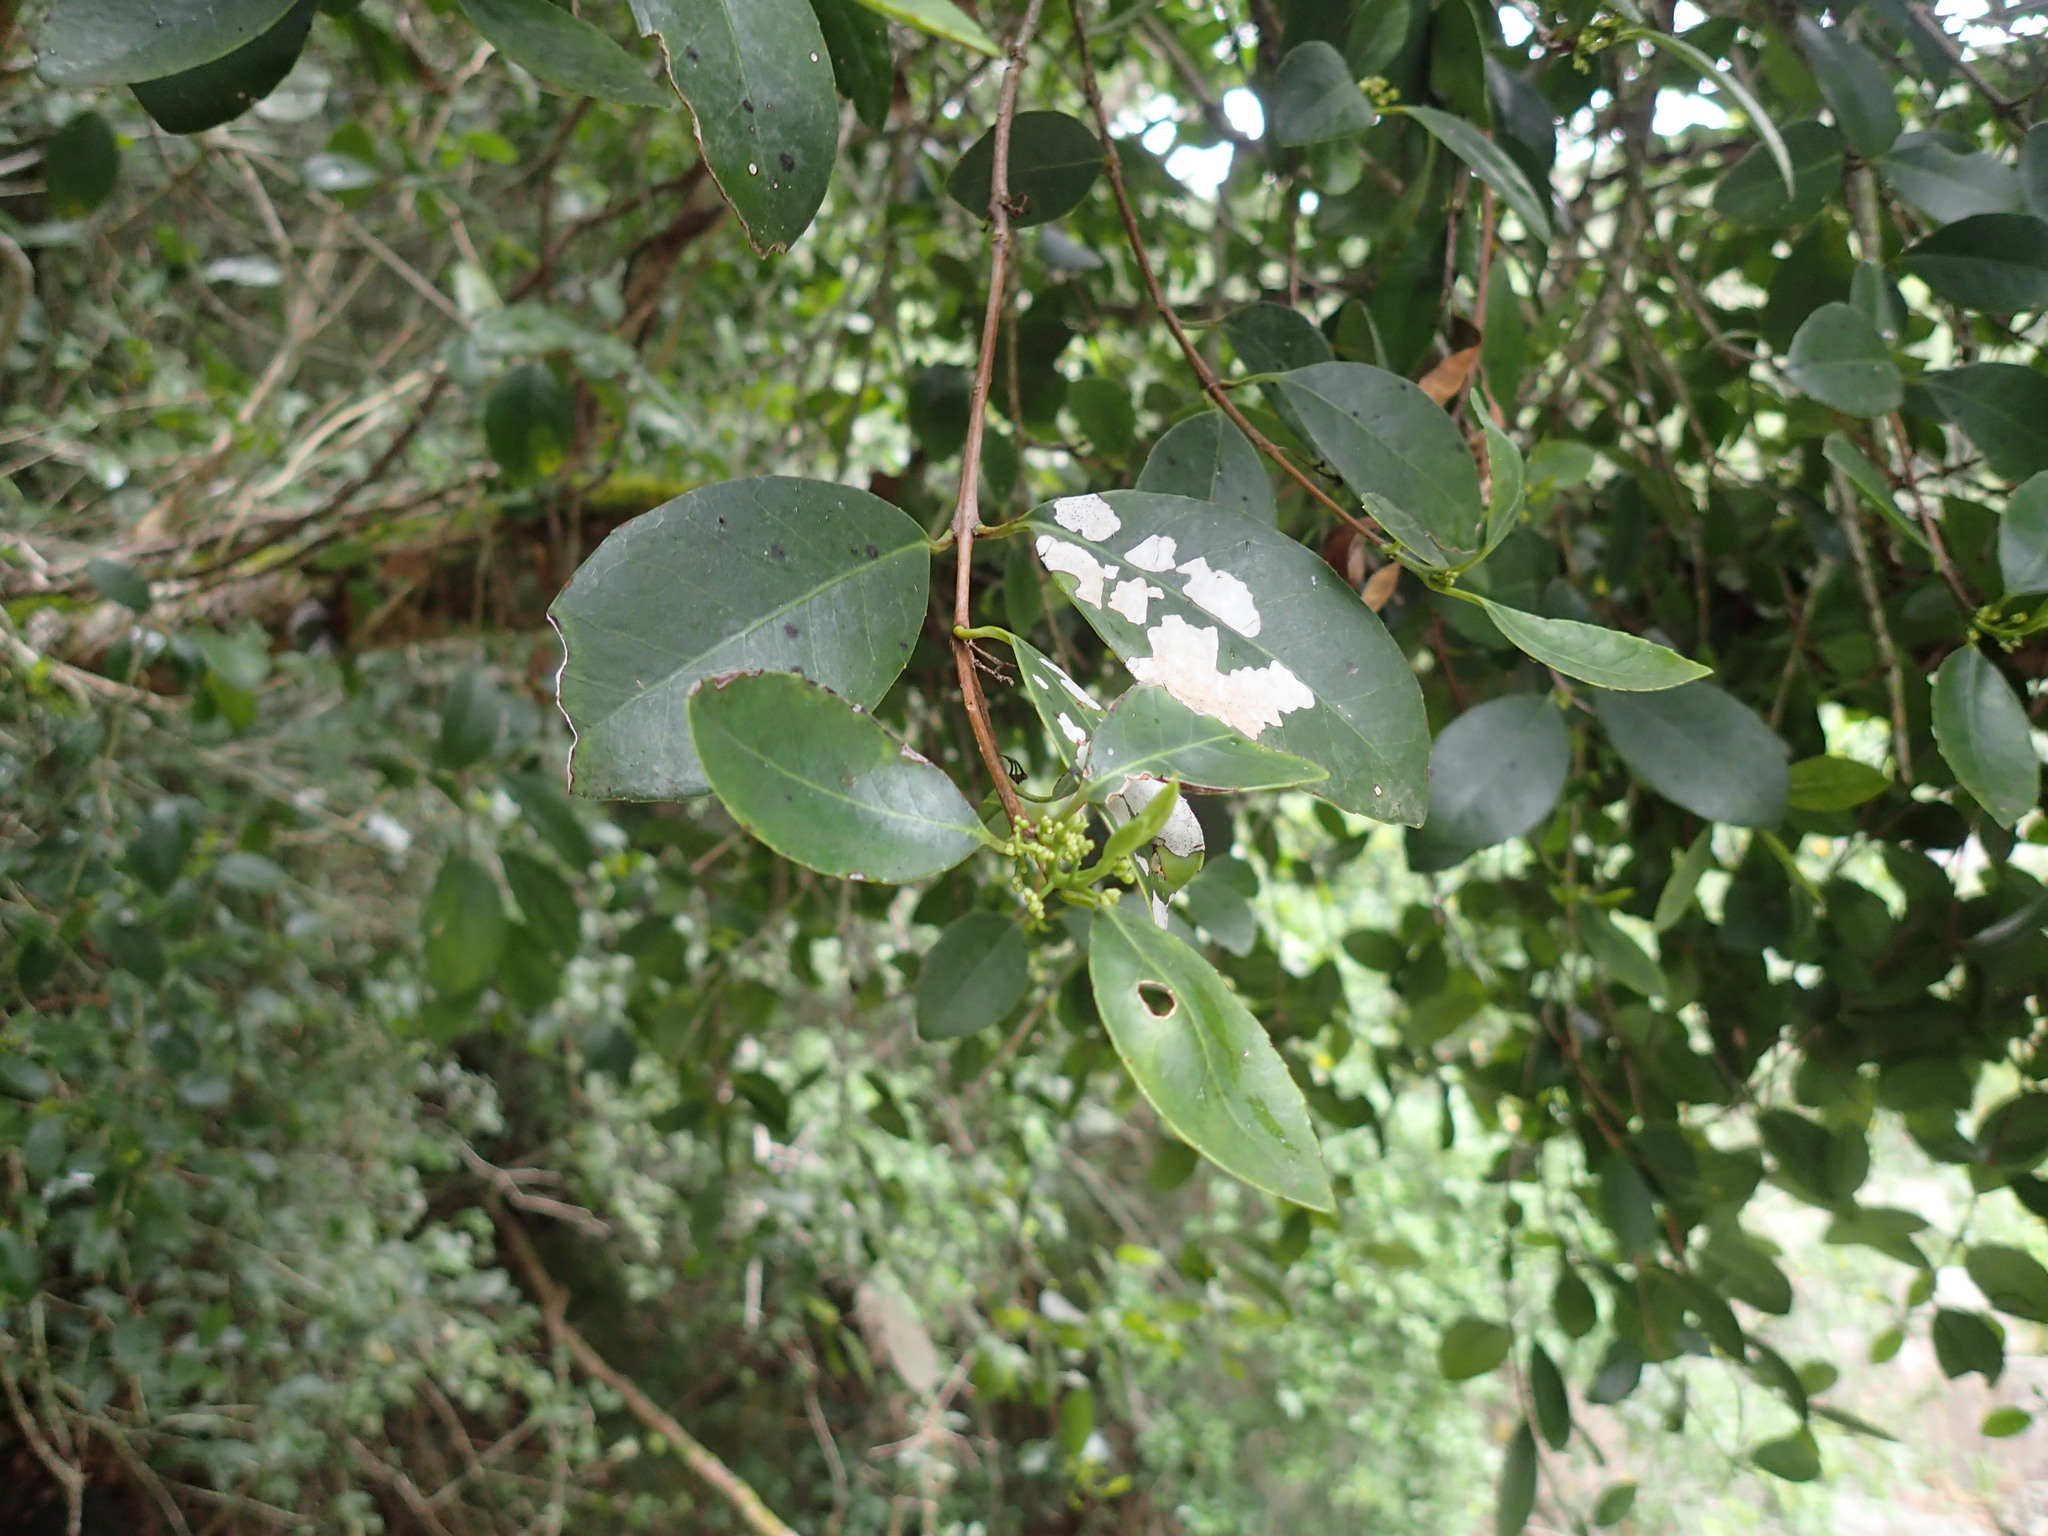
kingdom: Plantae
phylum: Tracheophyta
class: Magnoliopsida
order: Celastrales
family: Celastraceae
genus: Elaeodendron
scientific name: Elaeodendron croceum
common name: Saffron
